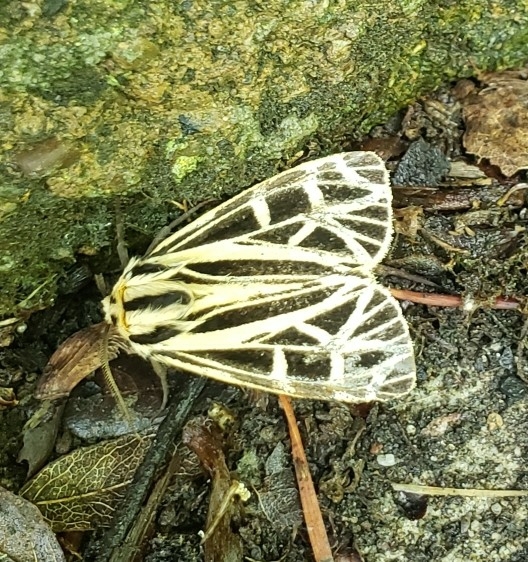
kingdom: Animalia
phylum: Arthropoda
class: Insecta
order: Lepidoptera
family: Erebidae
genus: Apantesis
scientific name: Apantesis
